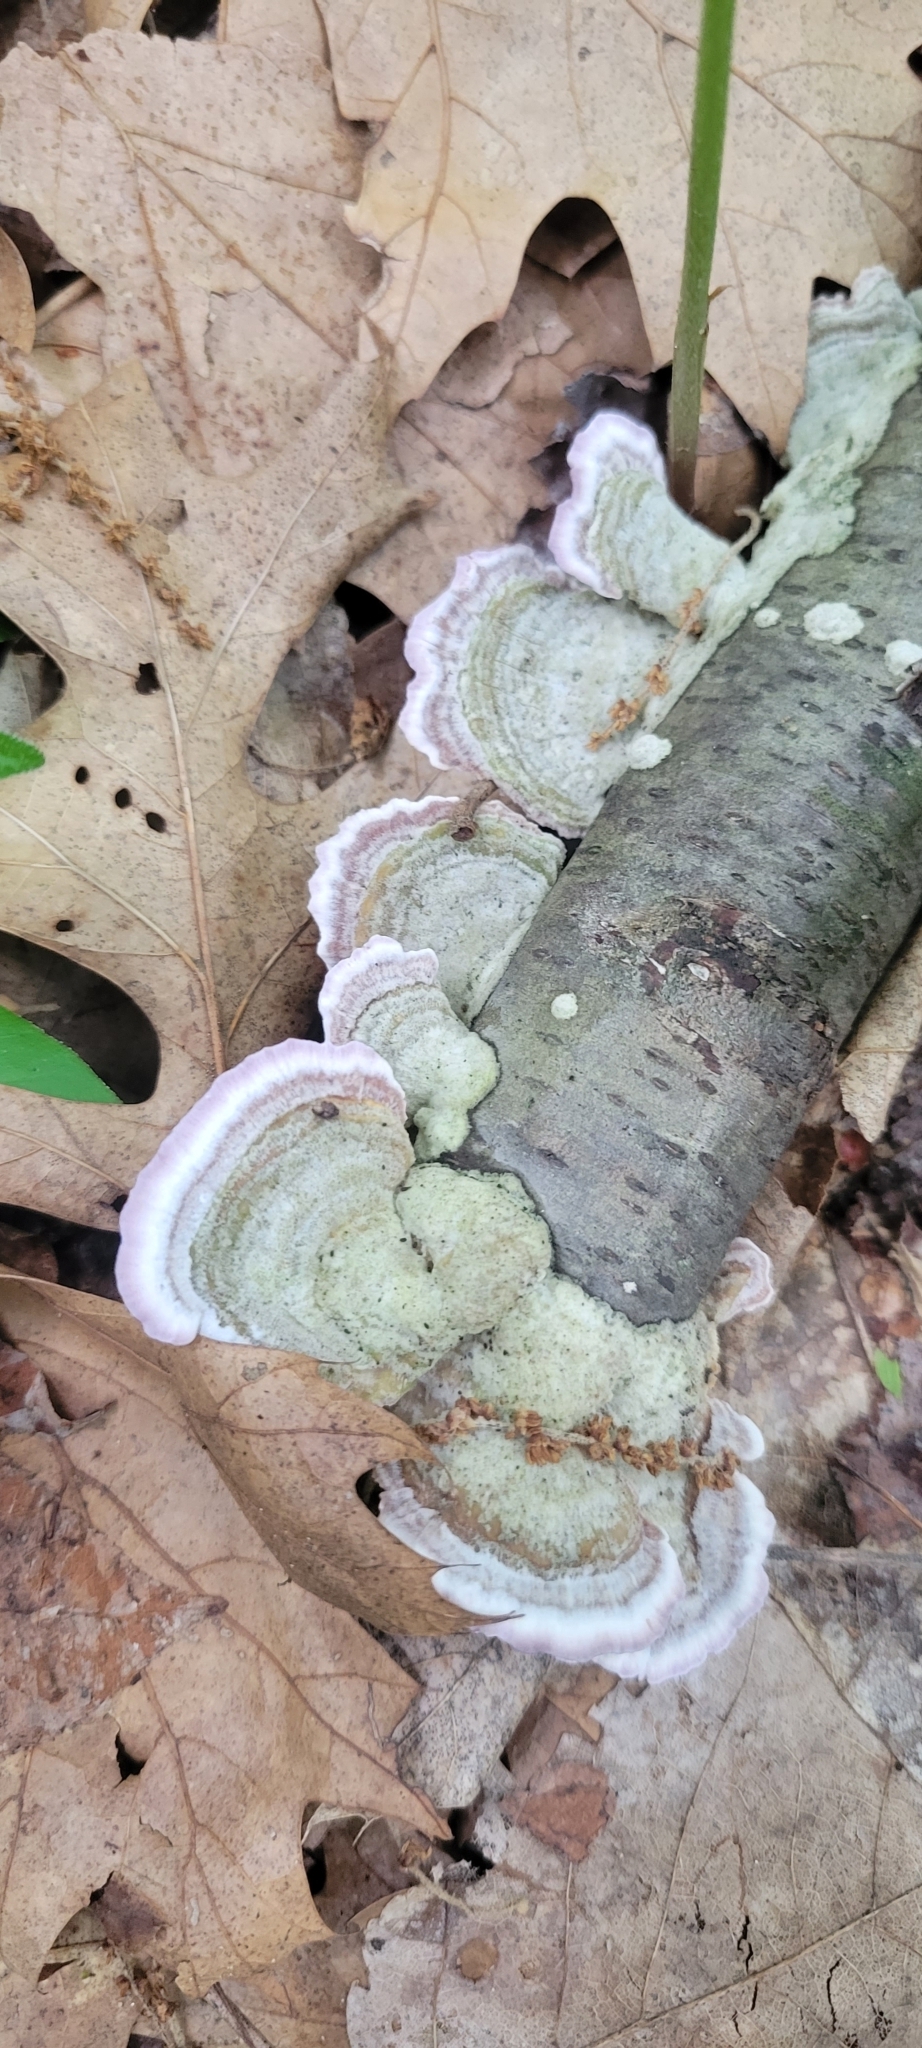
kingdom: Fungi
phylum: Basidiomycota
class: Agaricomycetes
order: Hymenochaetales
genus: Trichaptum
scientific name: Trichaptum biforme
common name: Violet-toothed polypore
